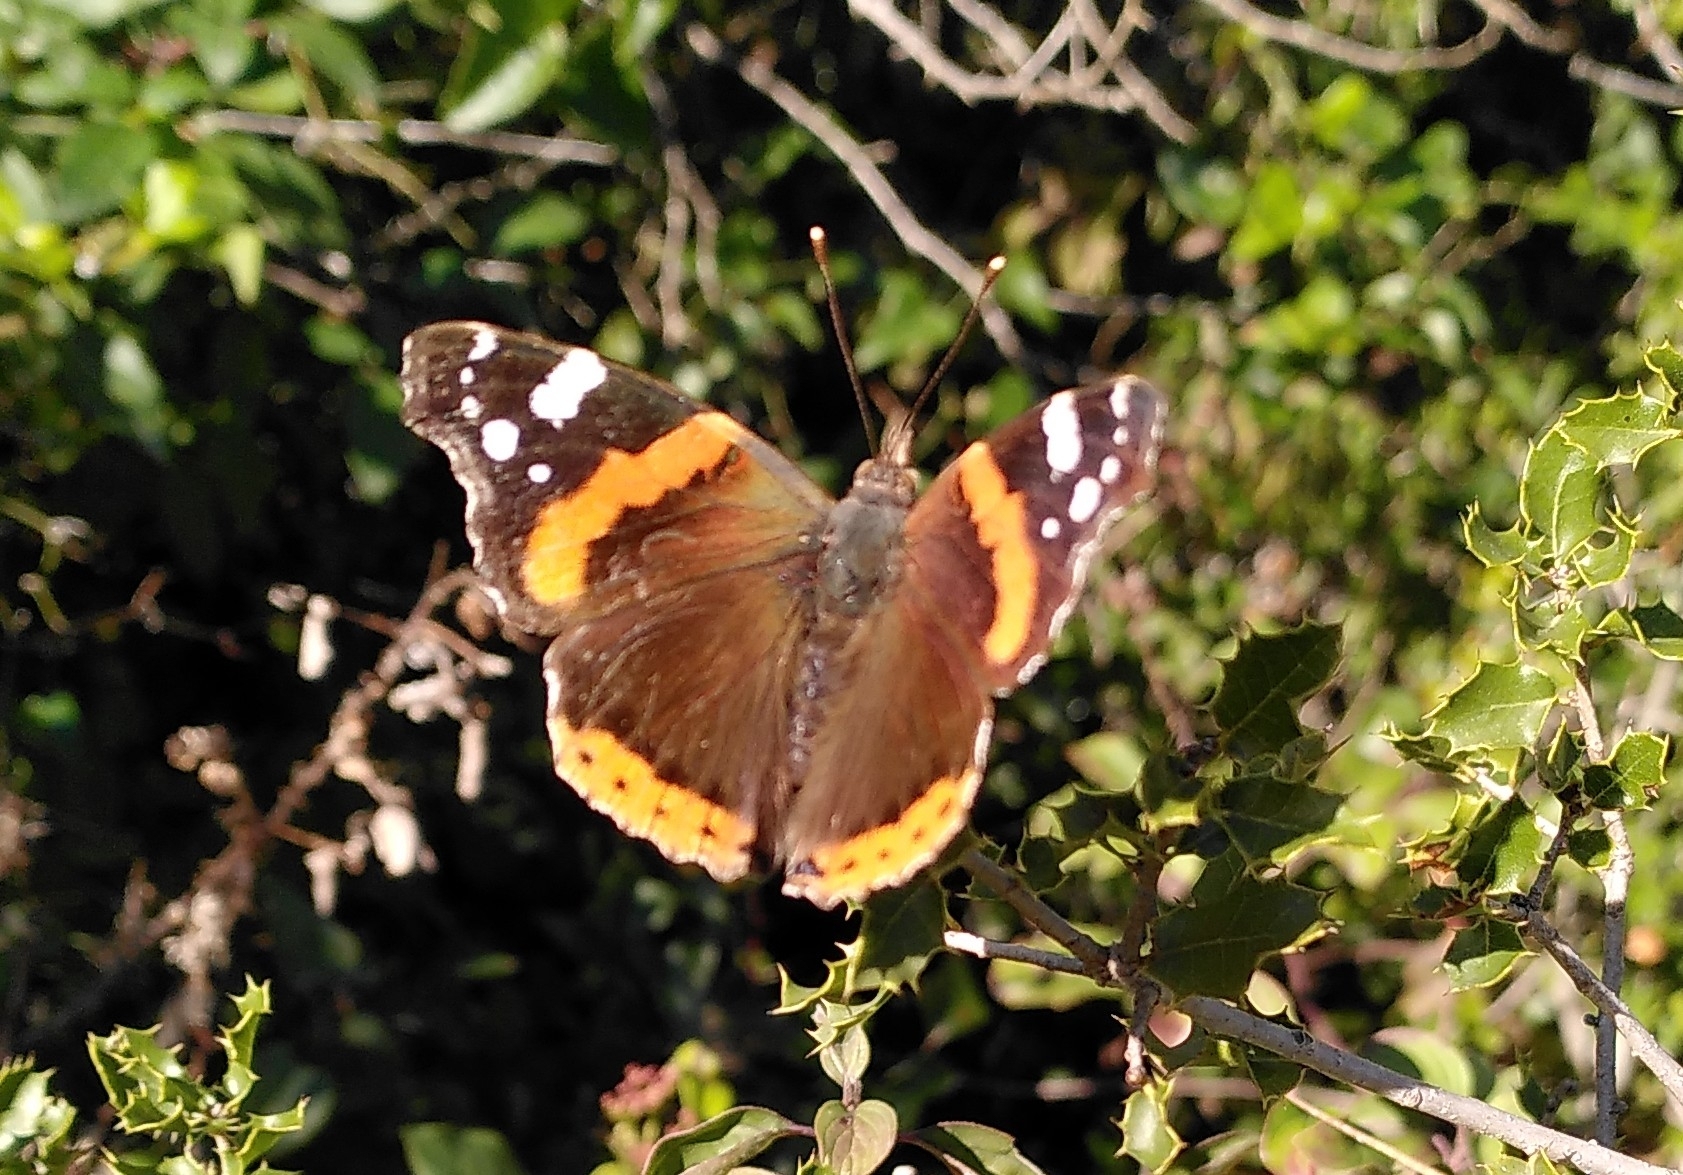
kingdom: Animalia
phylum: Arthropoda
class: Insecta
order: Lepidoptera
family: Nymphalidae
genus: Vanessa
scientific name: Vanessa atalanta
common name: Red admiral
